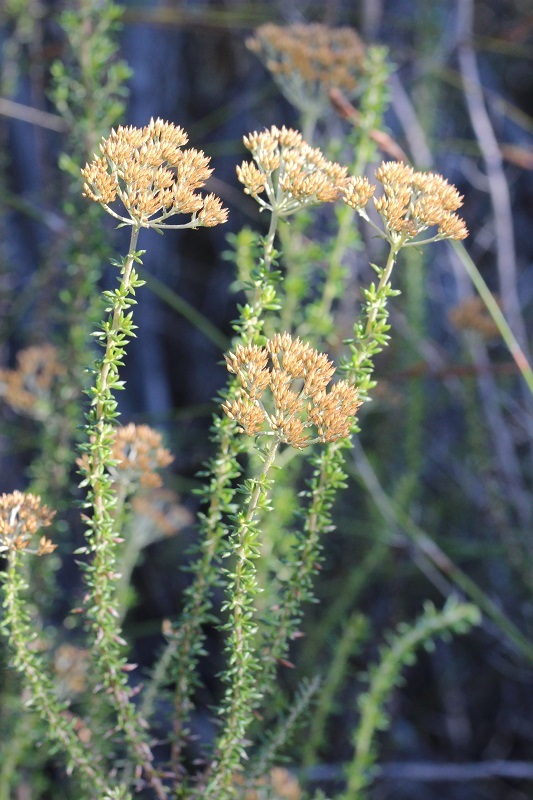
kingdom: Plantae
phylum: Tracheophyta
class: Magnoliopsida
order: Asterales
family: Asteraceae
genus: Metalasia
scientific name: Metalasia densa
